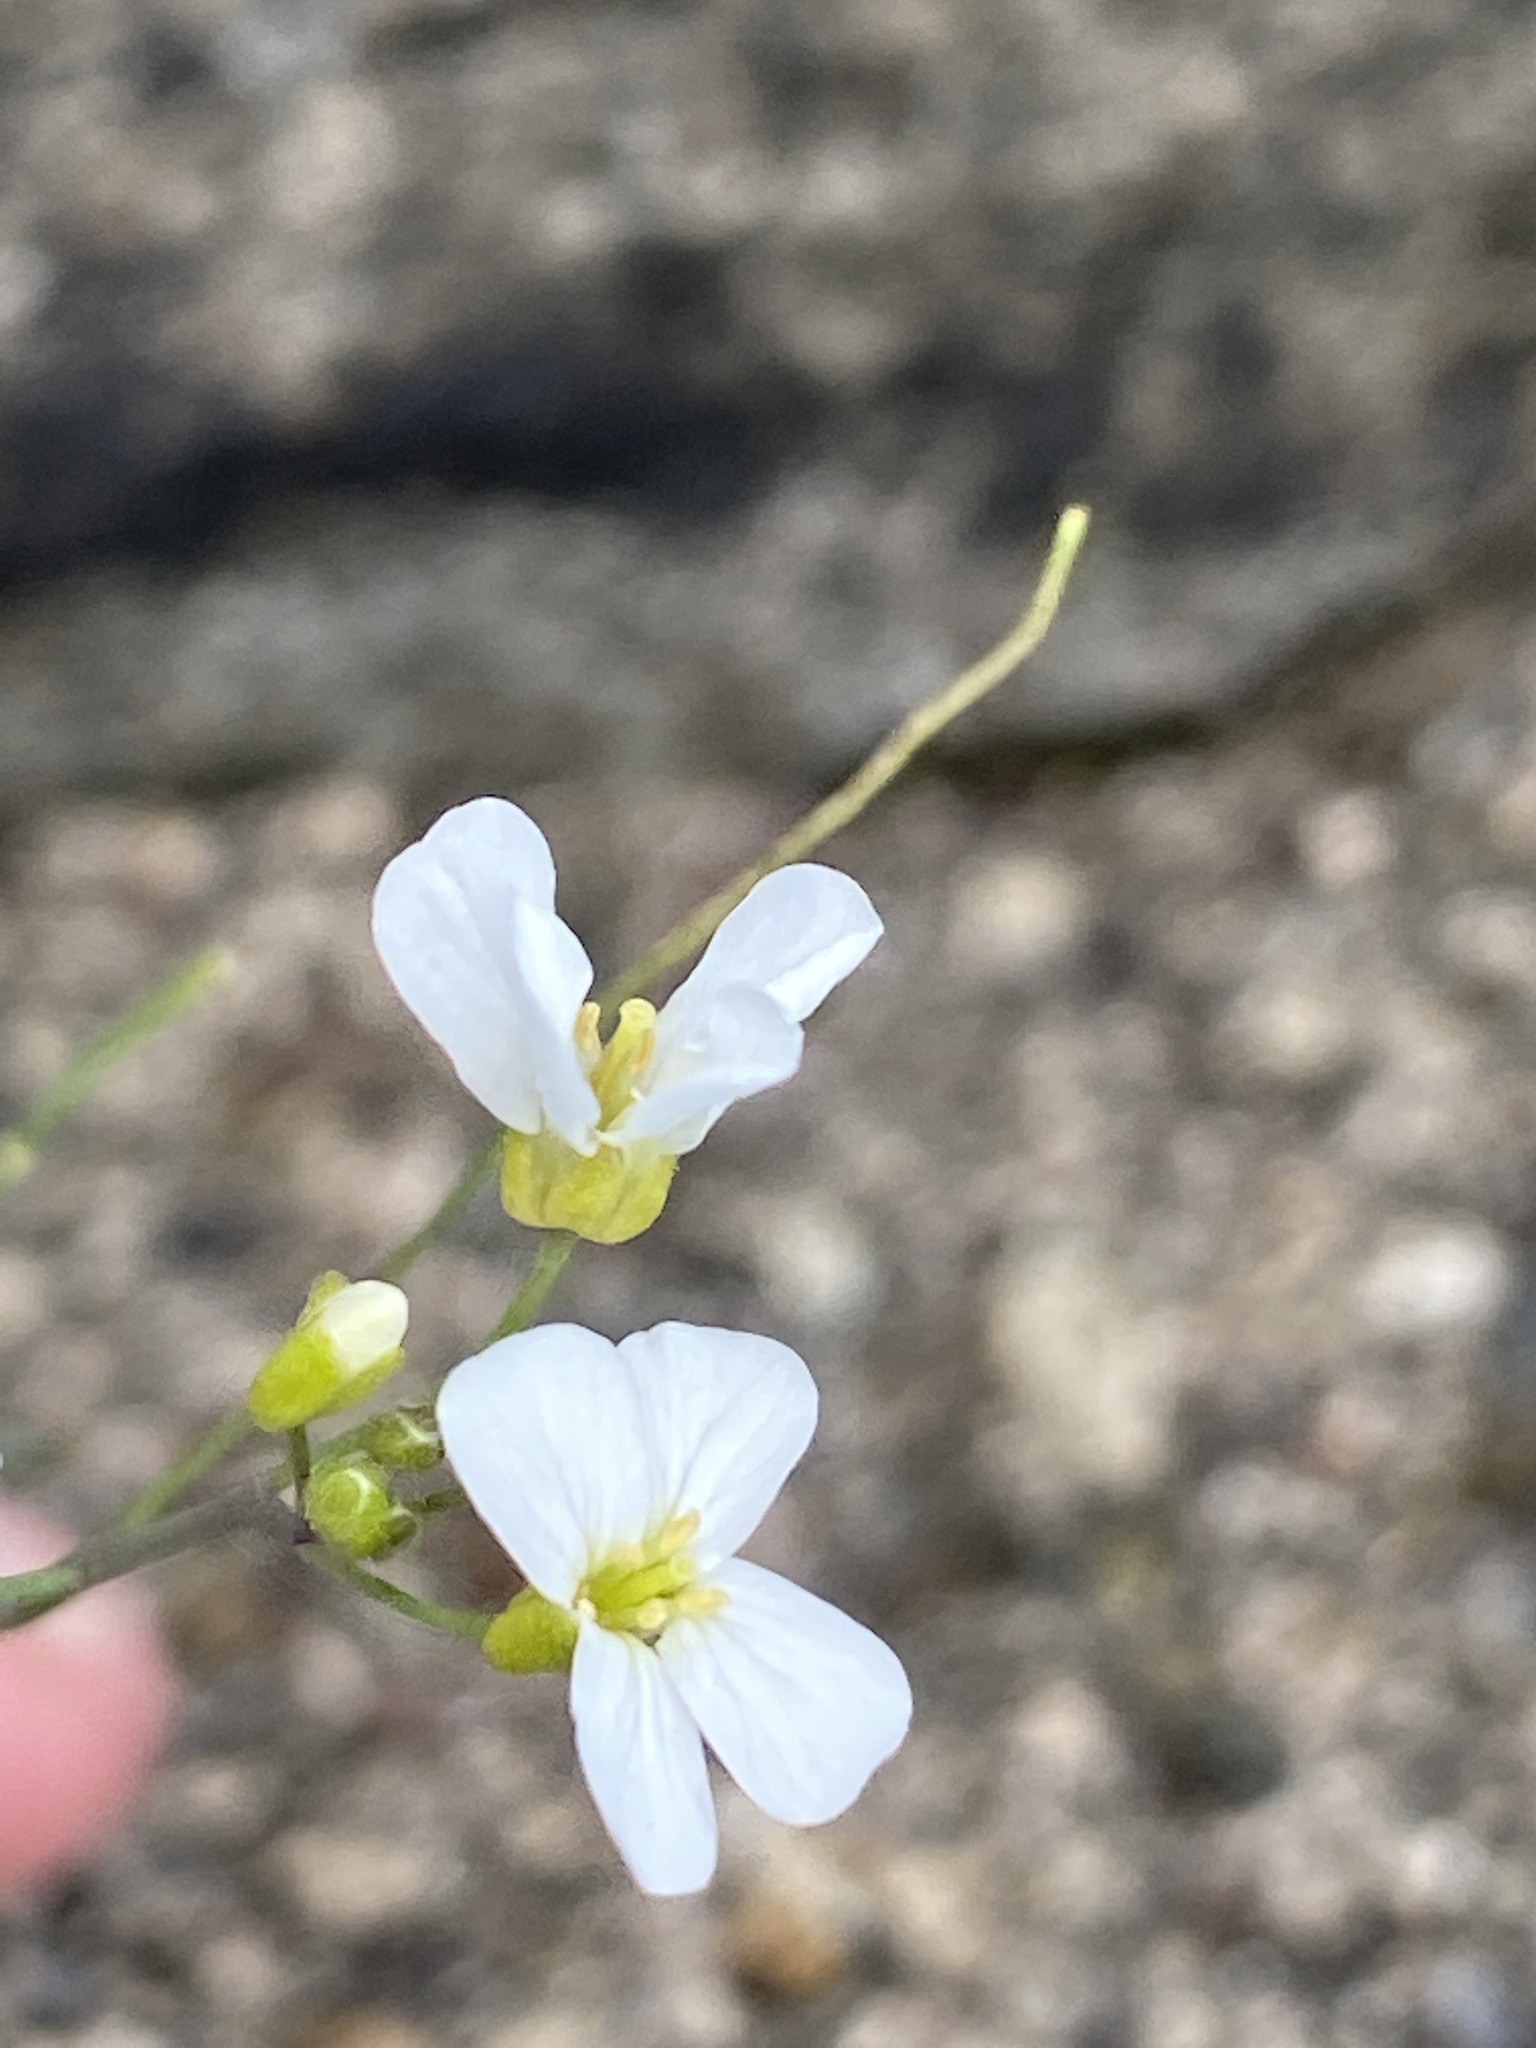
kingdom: Plantae
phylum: Tracheophyta
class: Magnoliopsida
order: Brassicales
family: Brassicaceae
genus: Arabidopsis
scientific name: Arabidopsis lyrata
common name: Lyrate rockcress
